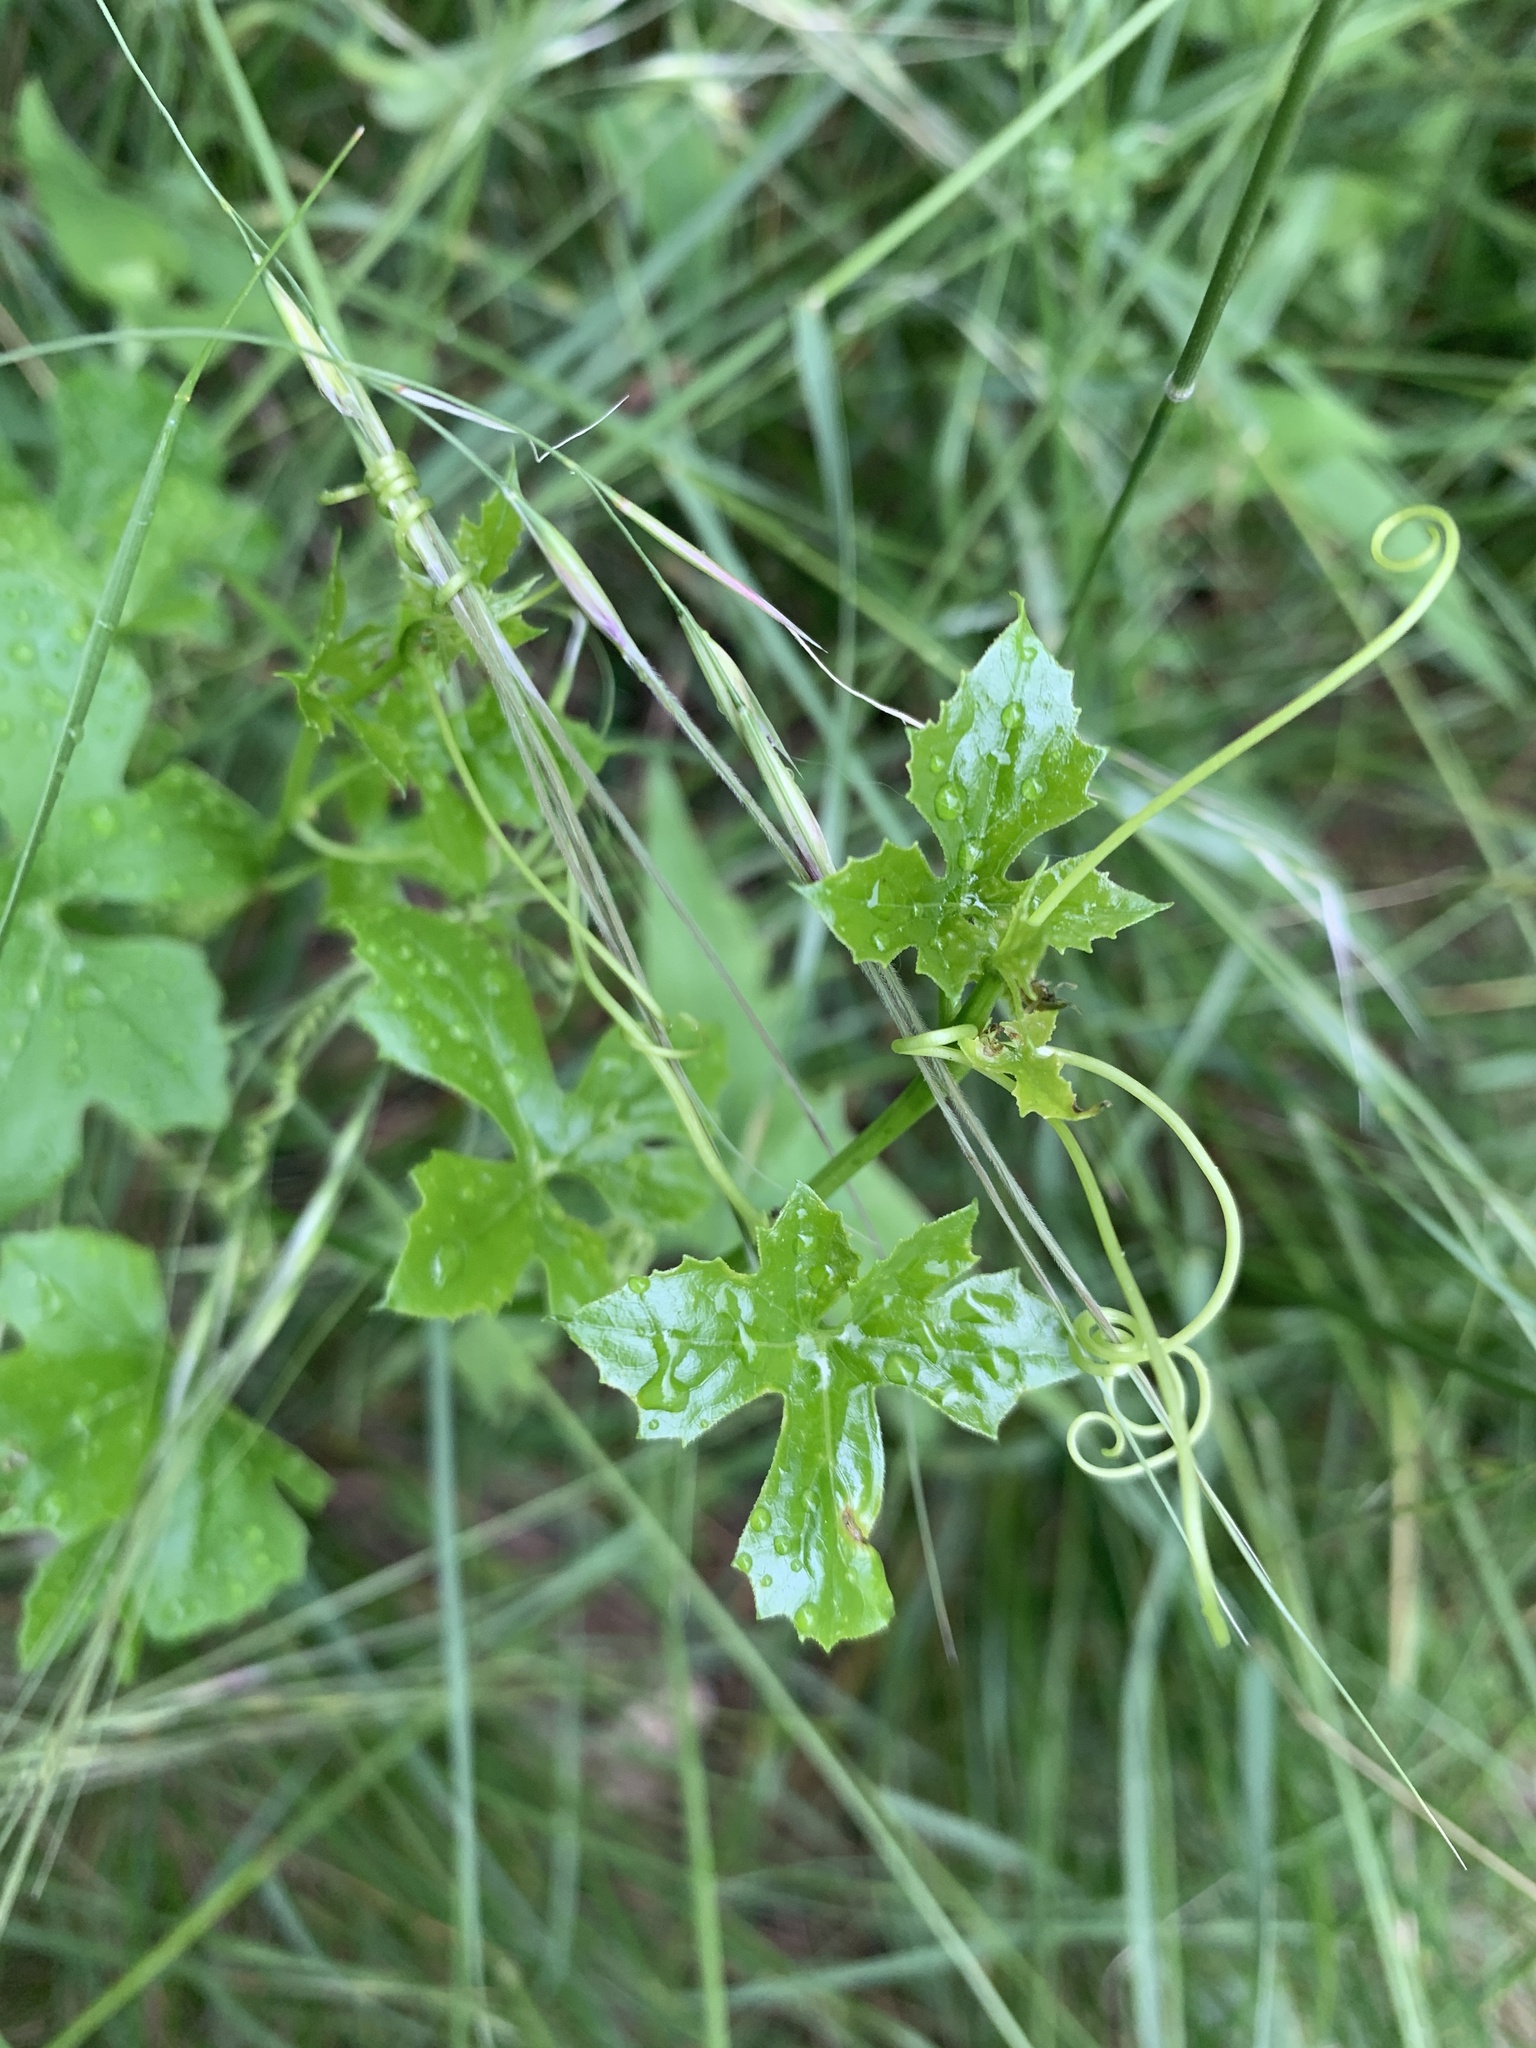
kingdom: Plantae
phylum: Tracheophyta
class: Magnoliopsida
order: Cucurbitales
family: Cucurbitaceae
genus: Melothria
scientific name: Melothria pendula
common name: Creeping-cucumber
